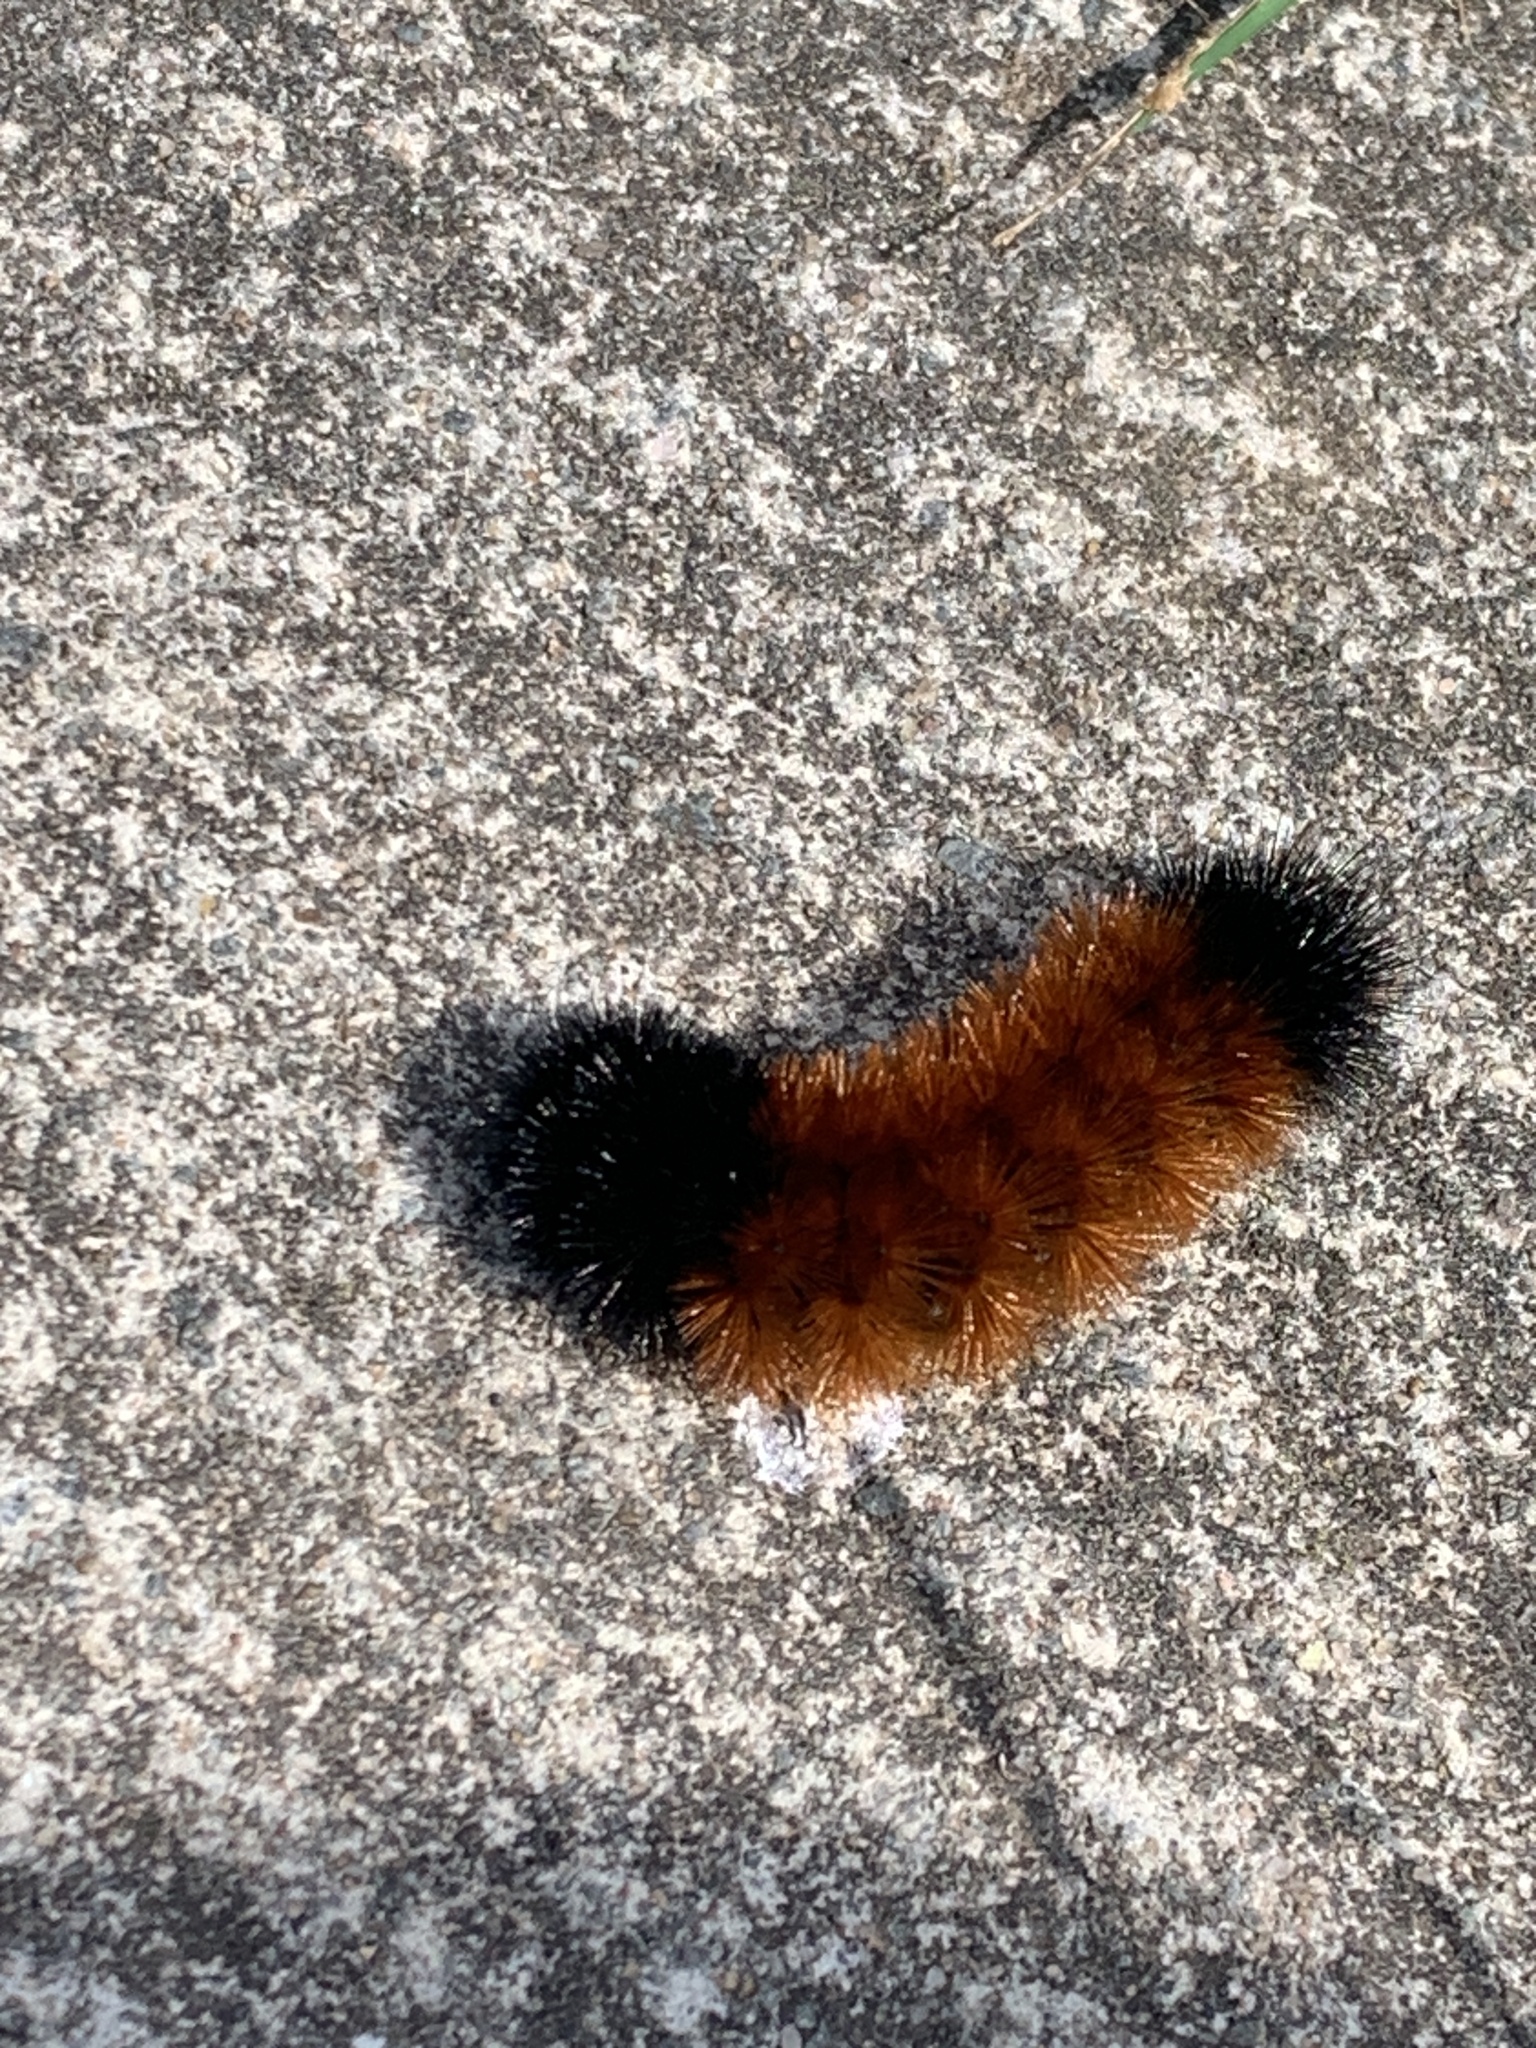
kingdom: Animalia
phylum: Arthropoda
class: Insecta
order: Lepidoptera
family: Erebidae
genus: Pyrrharctia
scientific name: Pyrrharctia isabella
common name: Isabella tiger moth
